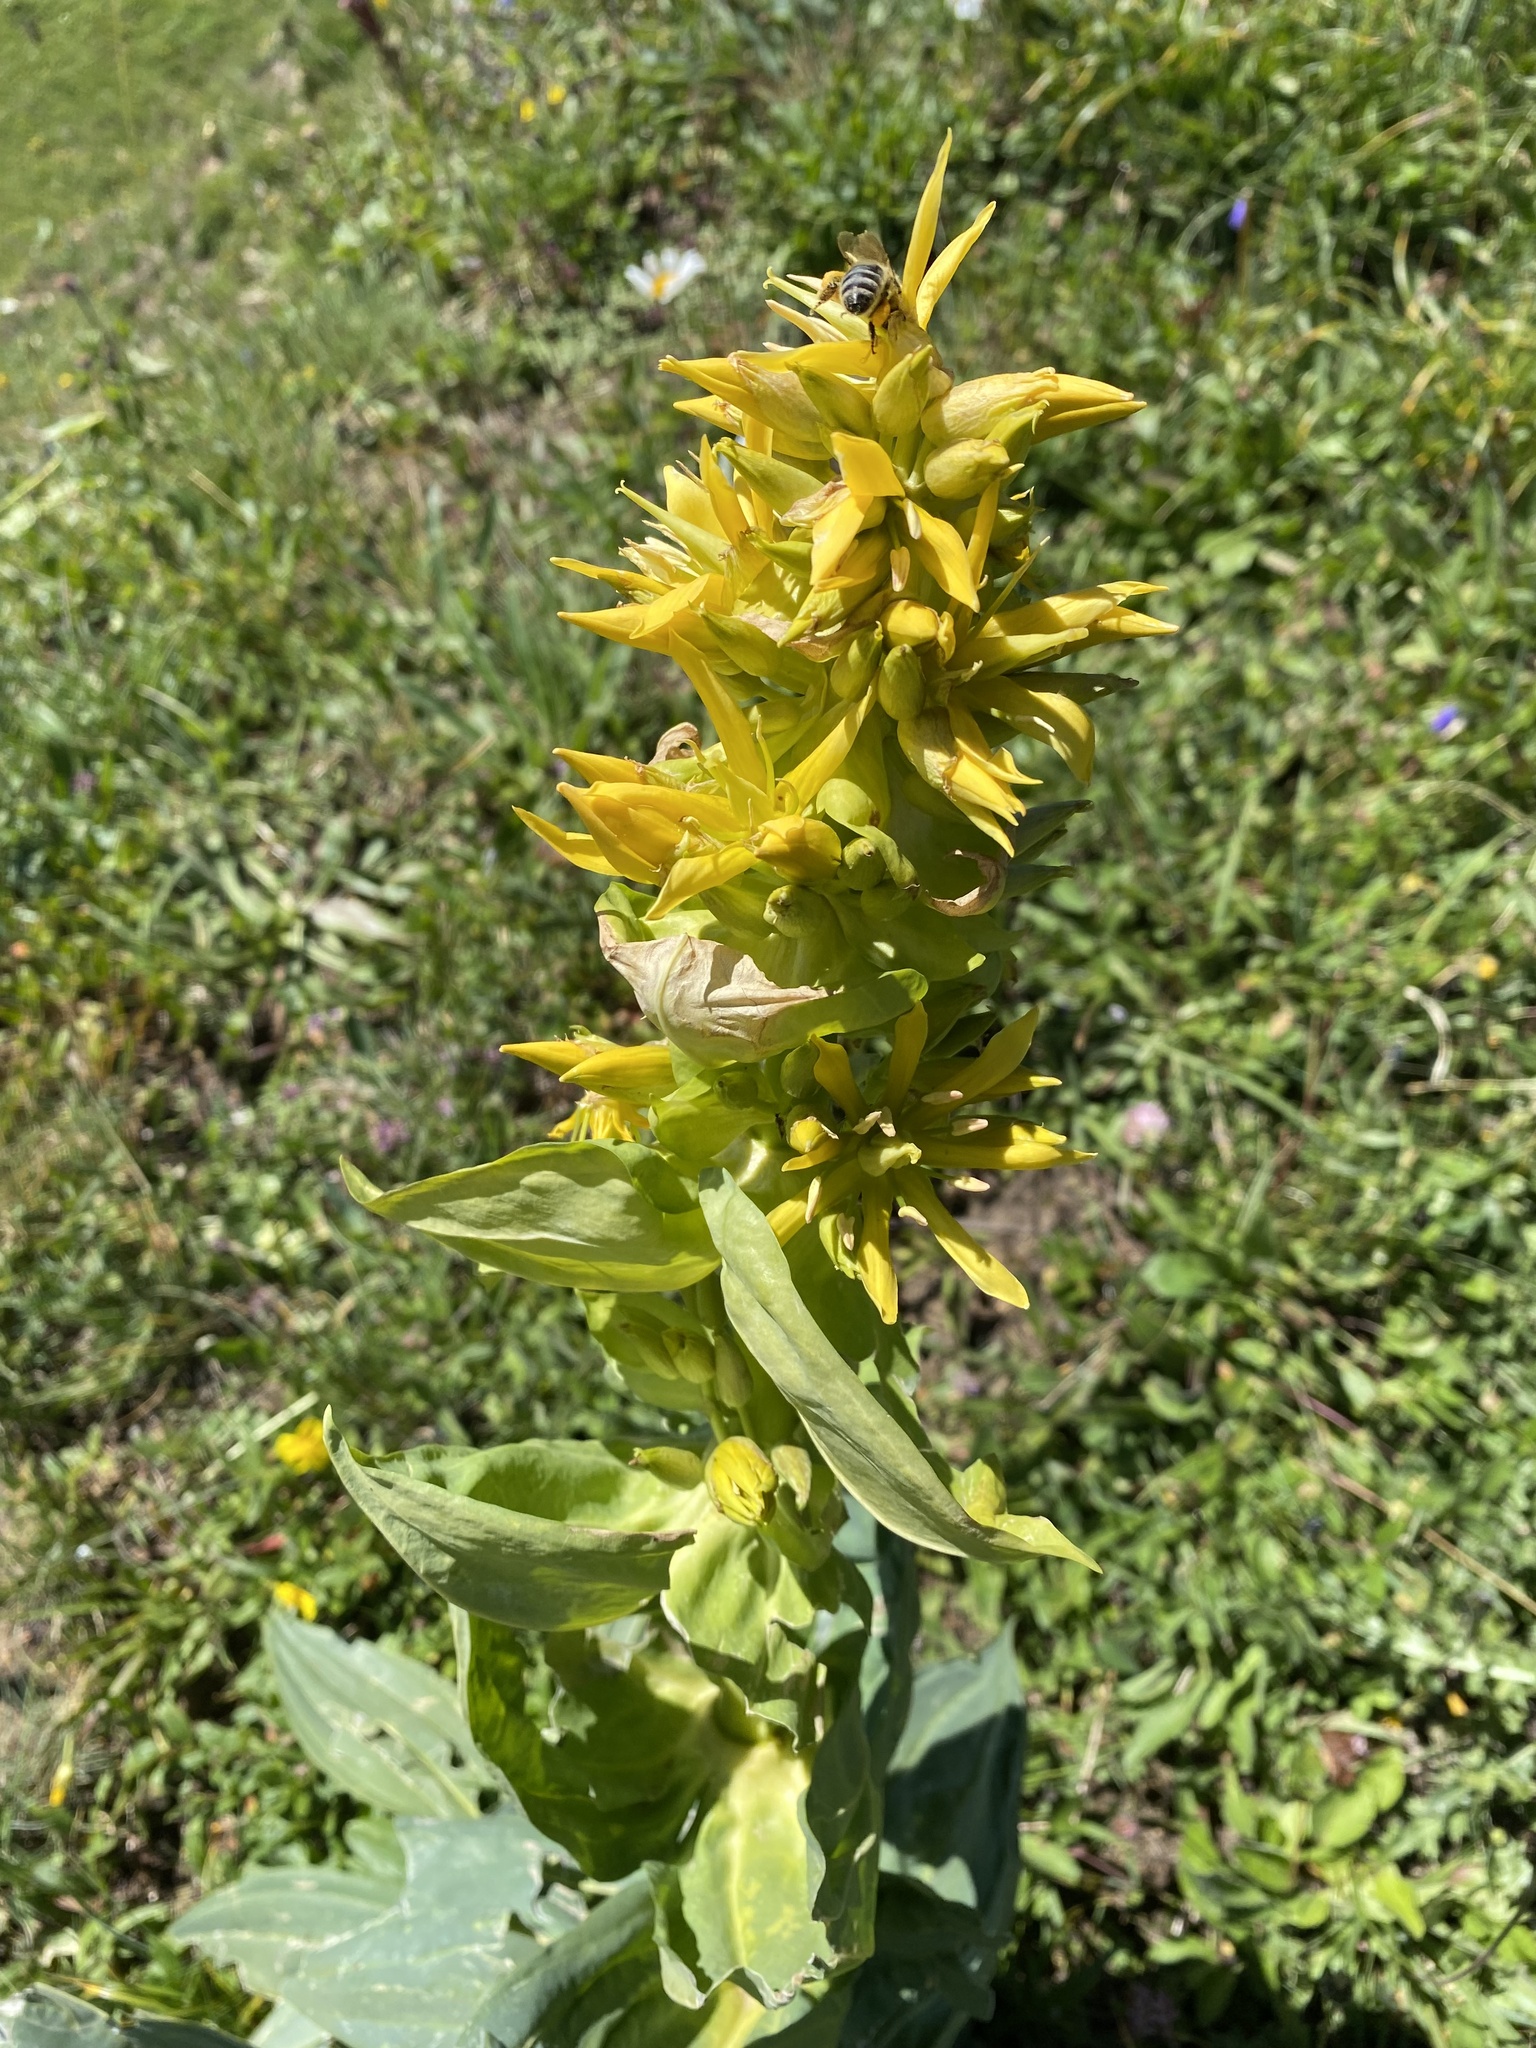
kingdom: Plantae
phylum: Tracheophyta
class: Magnoliopsida
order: Gentianales
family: Gentianaceae
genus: Gentiana
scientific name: Gentiana lutea
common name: Great yellow gentian
